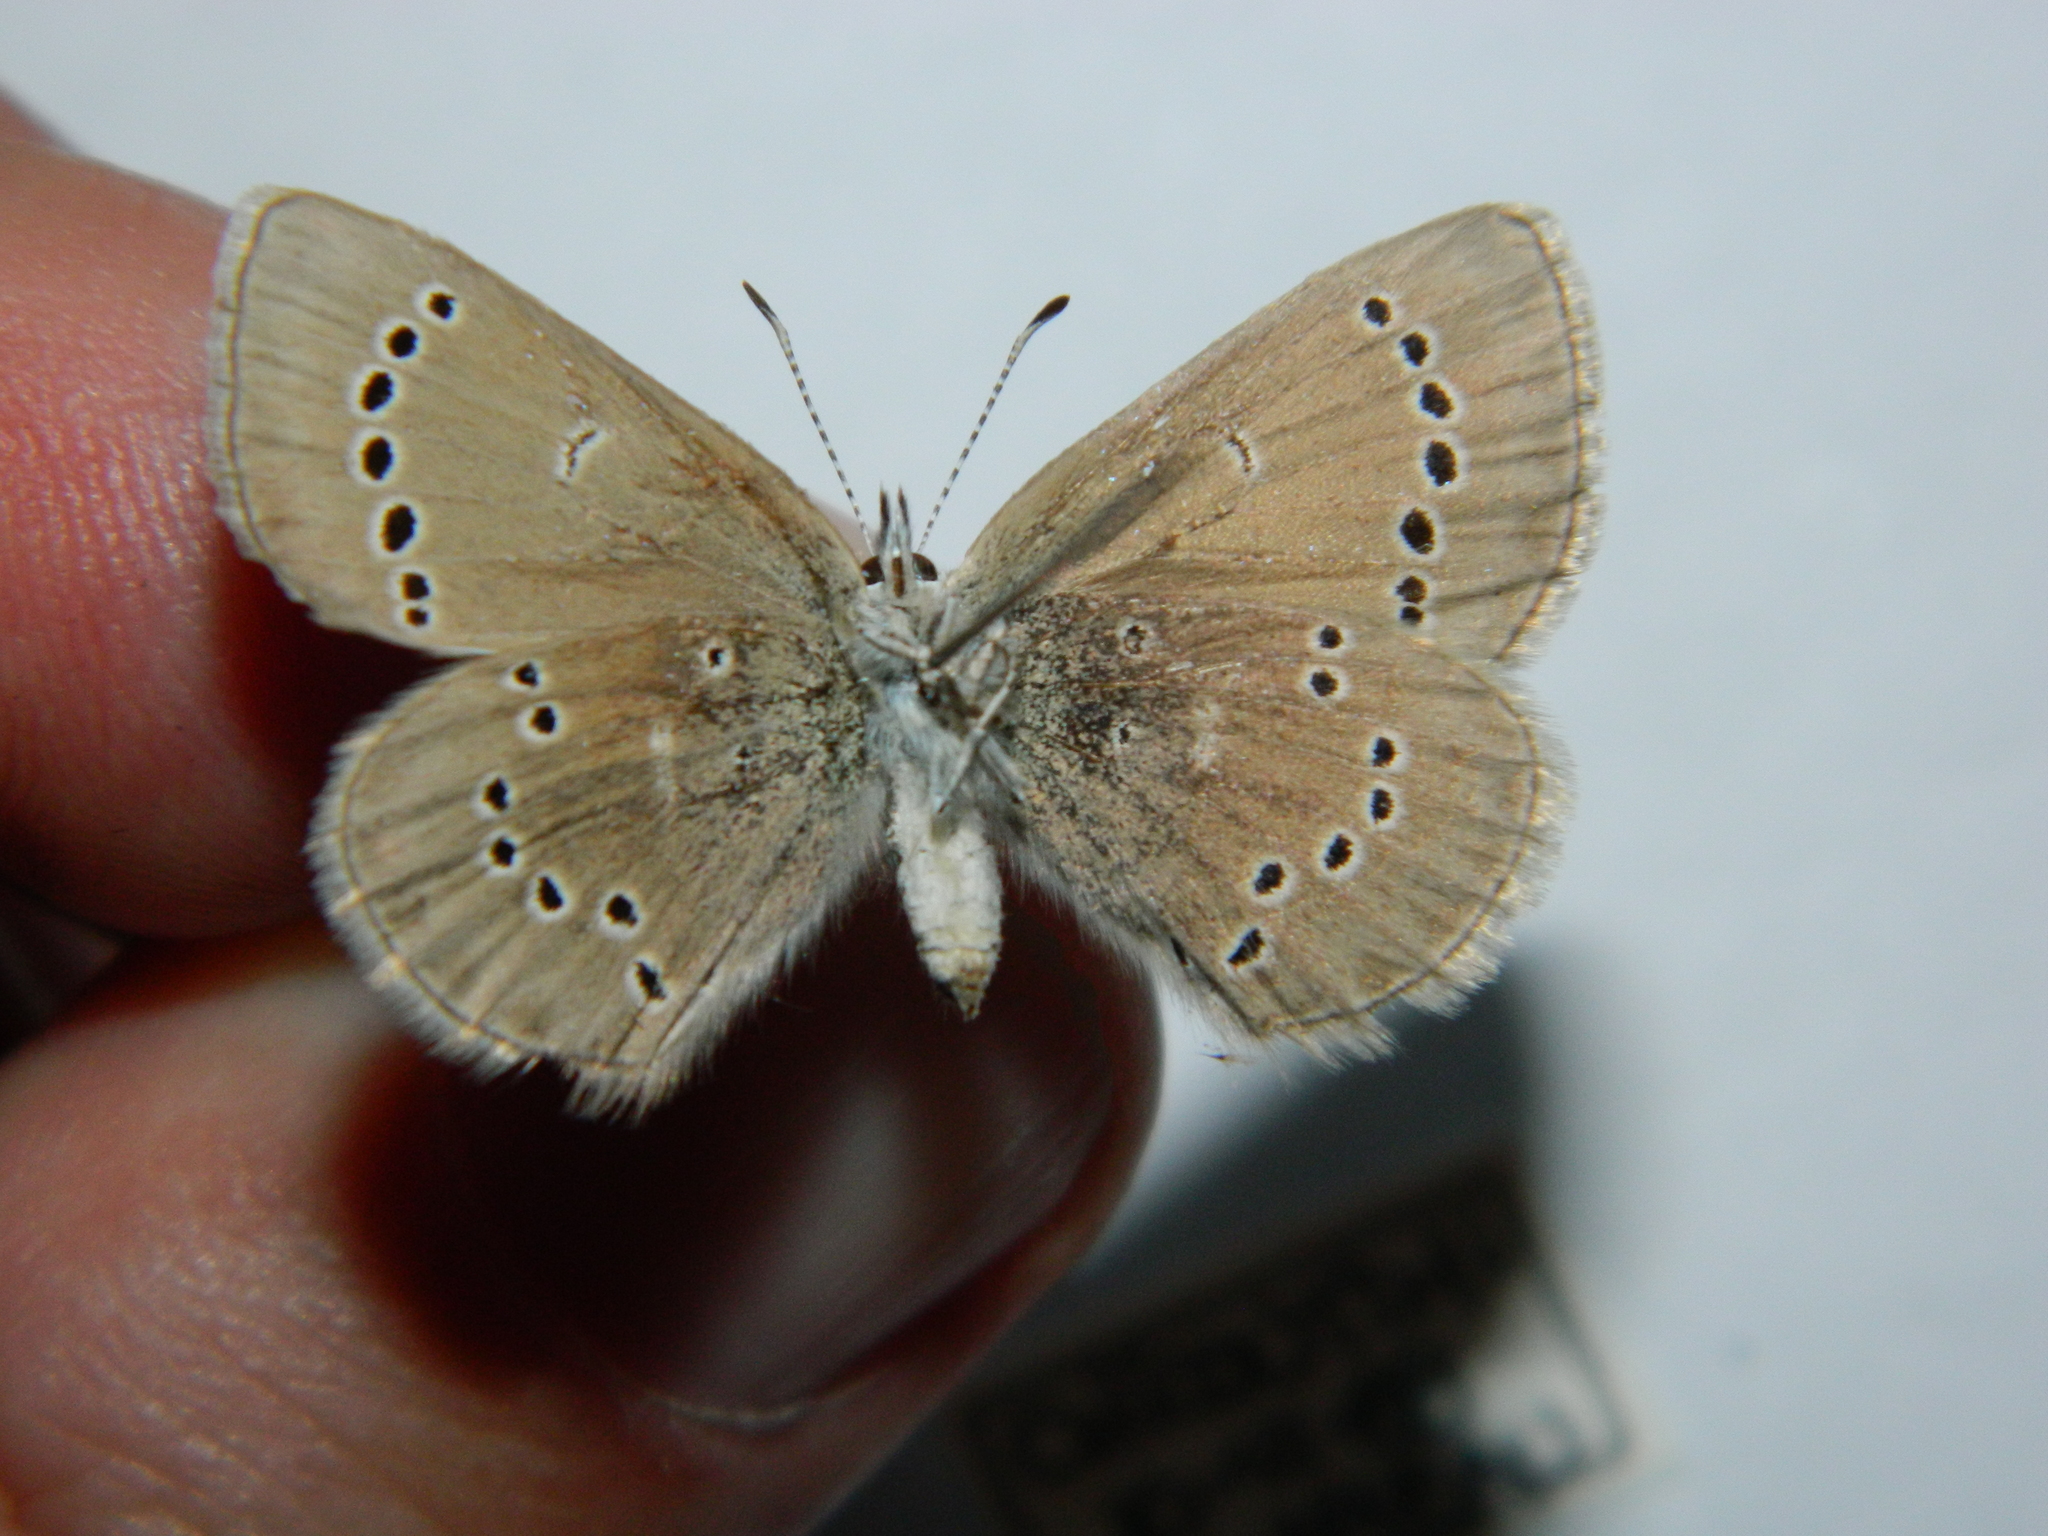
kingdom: Animalia
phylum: Arthropoda
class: Insecta
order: Lepidoptera
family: Lycaenidae
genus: Glaucopsyche
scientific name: Glaucopsyche lygdamus
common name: Silvery blue
